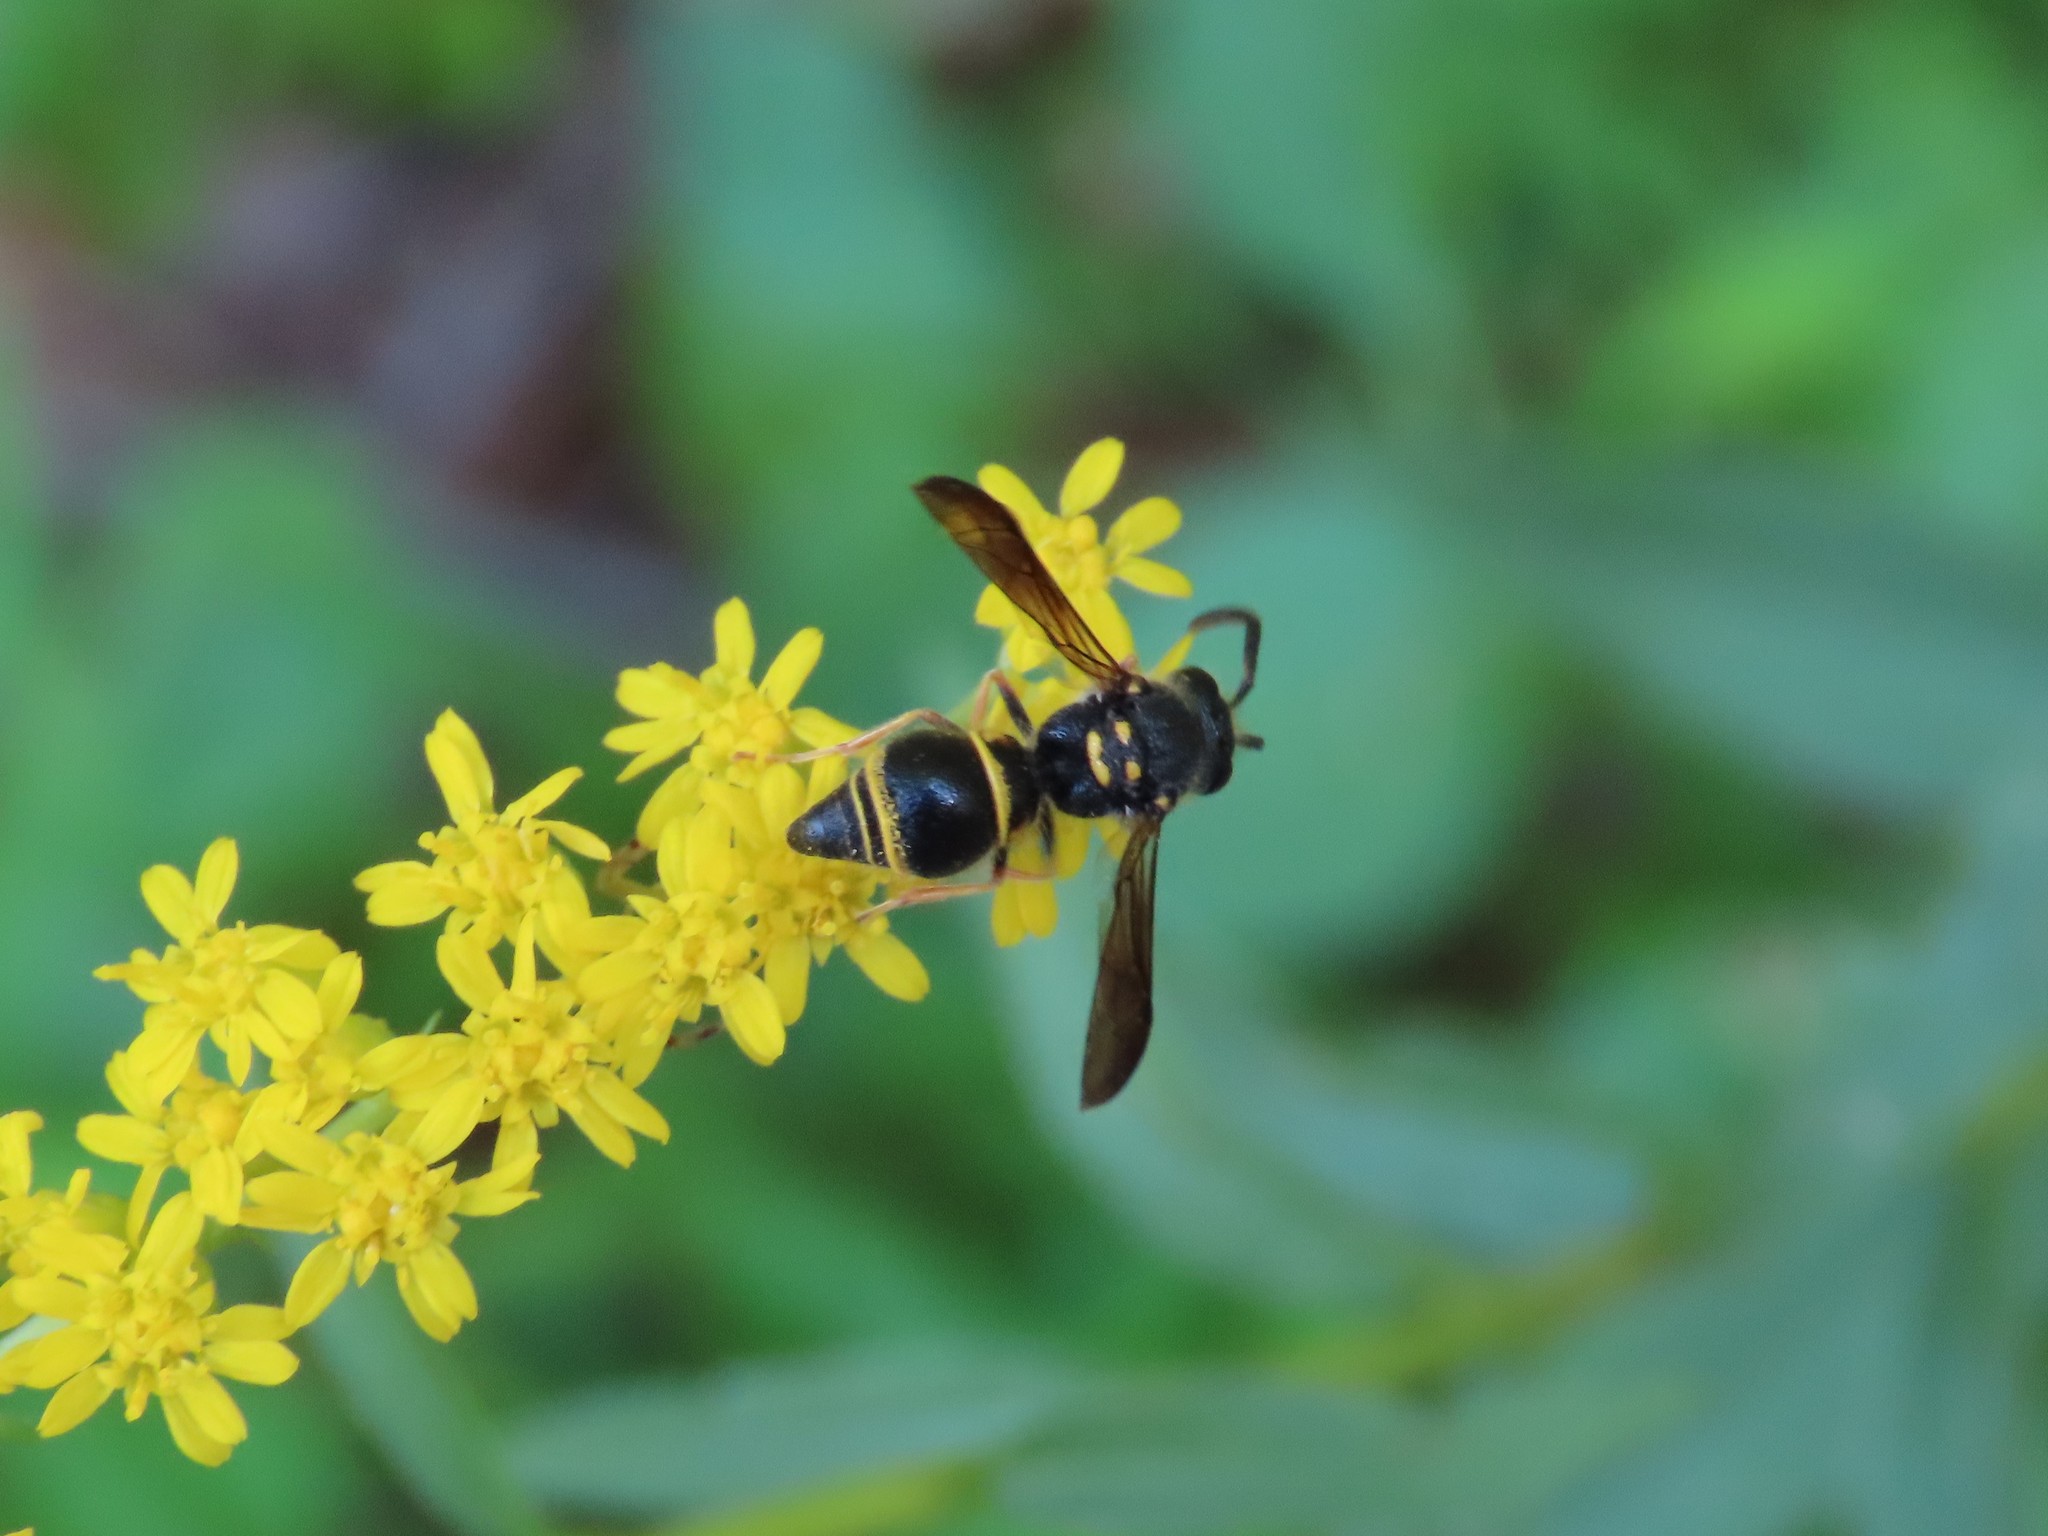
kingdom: Animalia
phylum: Arthropoda
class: Insecta
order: Hymenoptera
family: Vespidae
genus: Ancistrocerus
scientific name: Ancistrocerus campestris
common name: Smiling mason wasp
